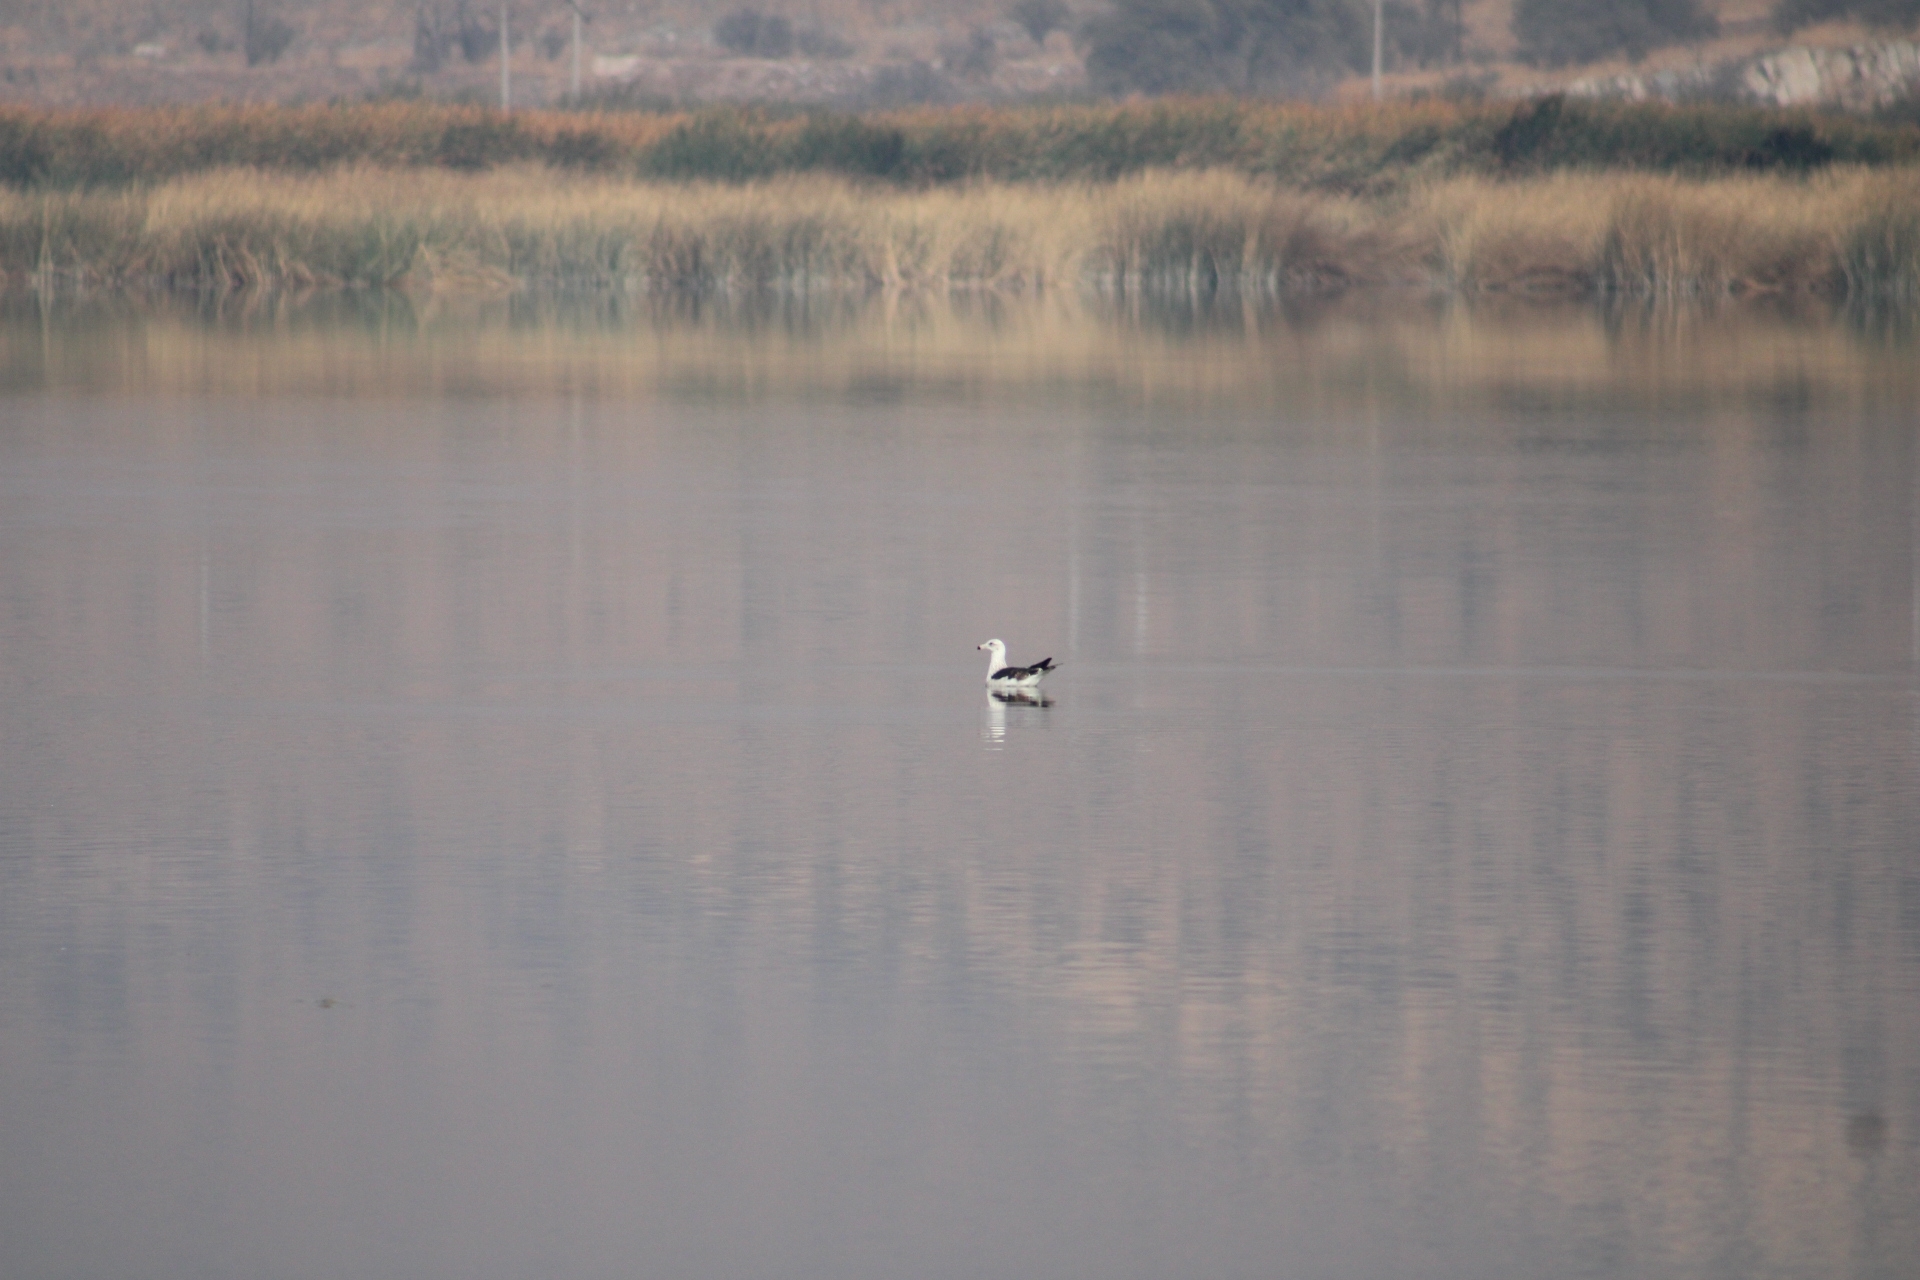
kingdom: Animalia
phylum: Chordata
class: Aves
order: Charadriiformes
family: Laridae
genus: Larus
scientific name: Larus dominicanus
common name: Kelp gull
